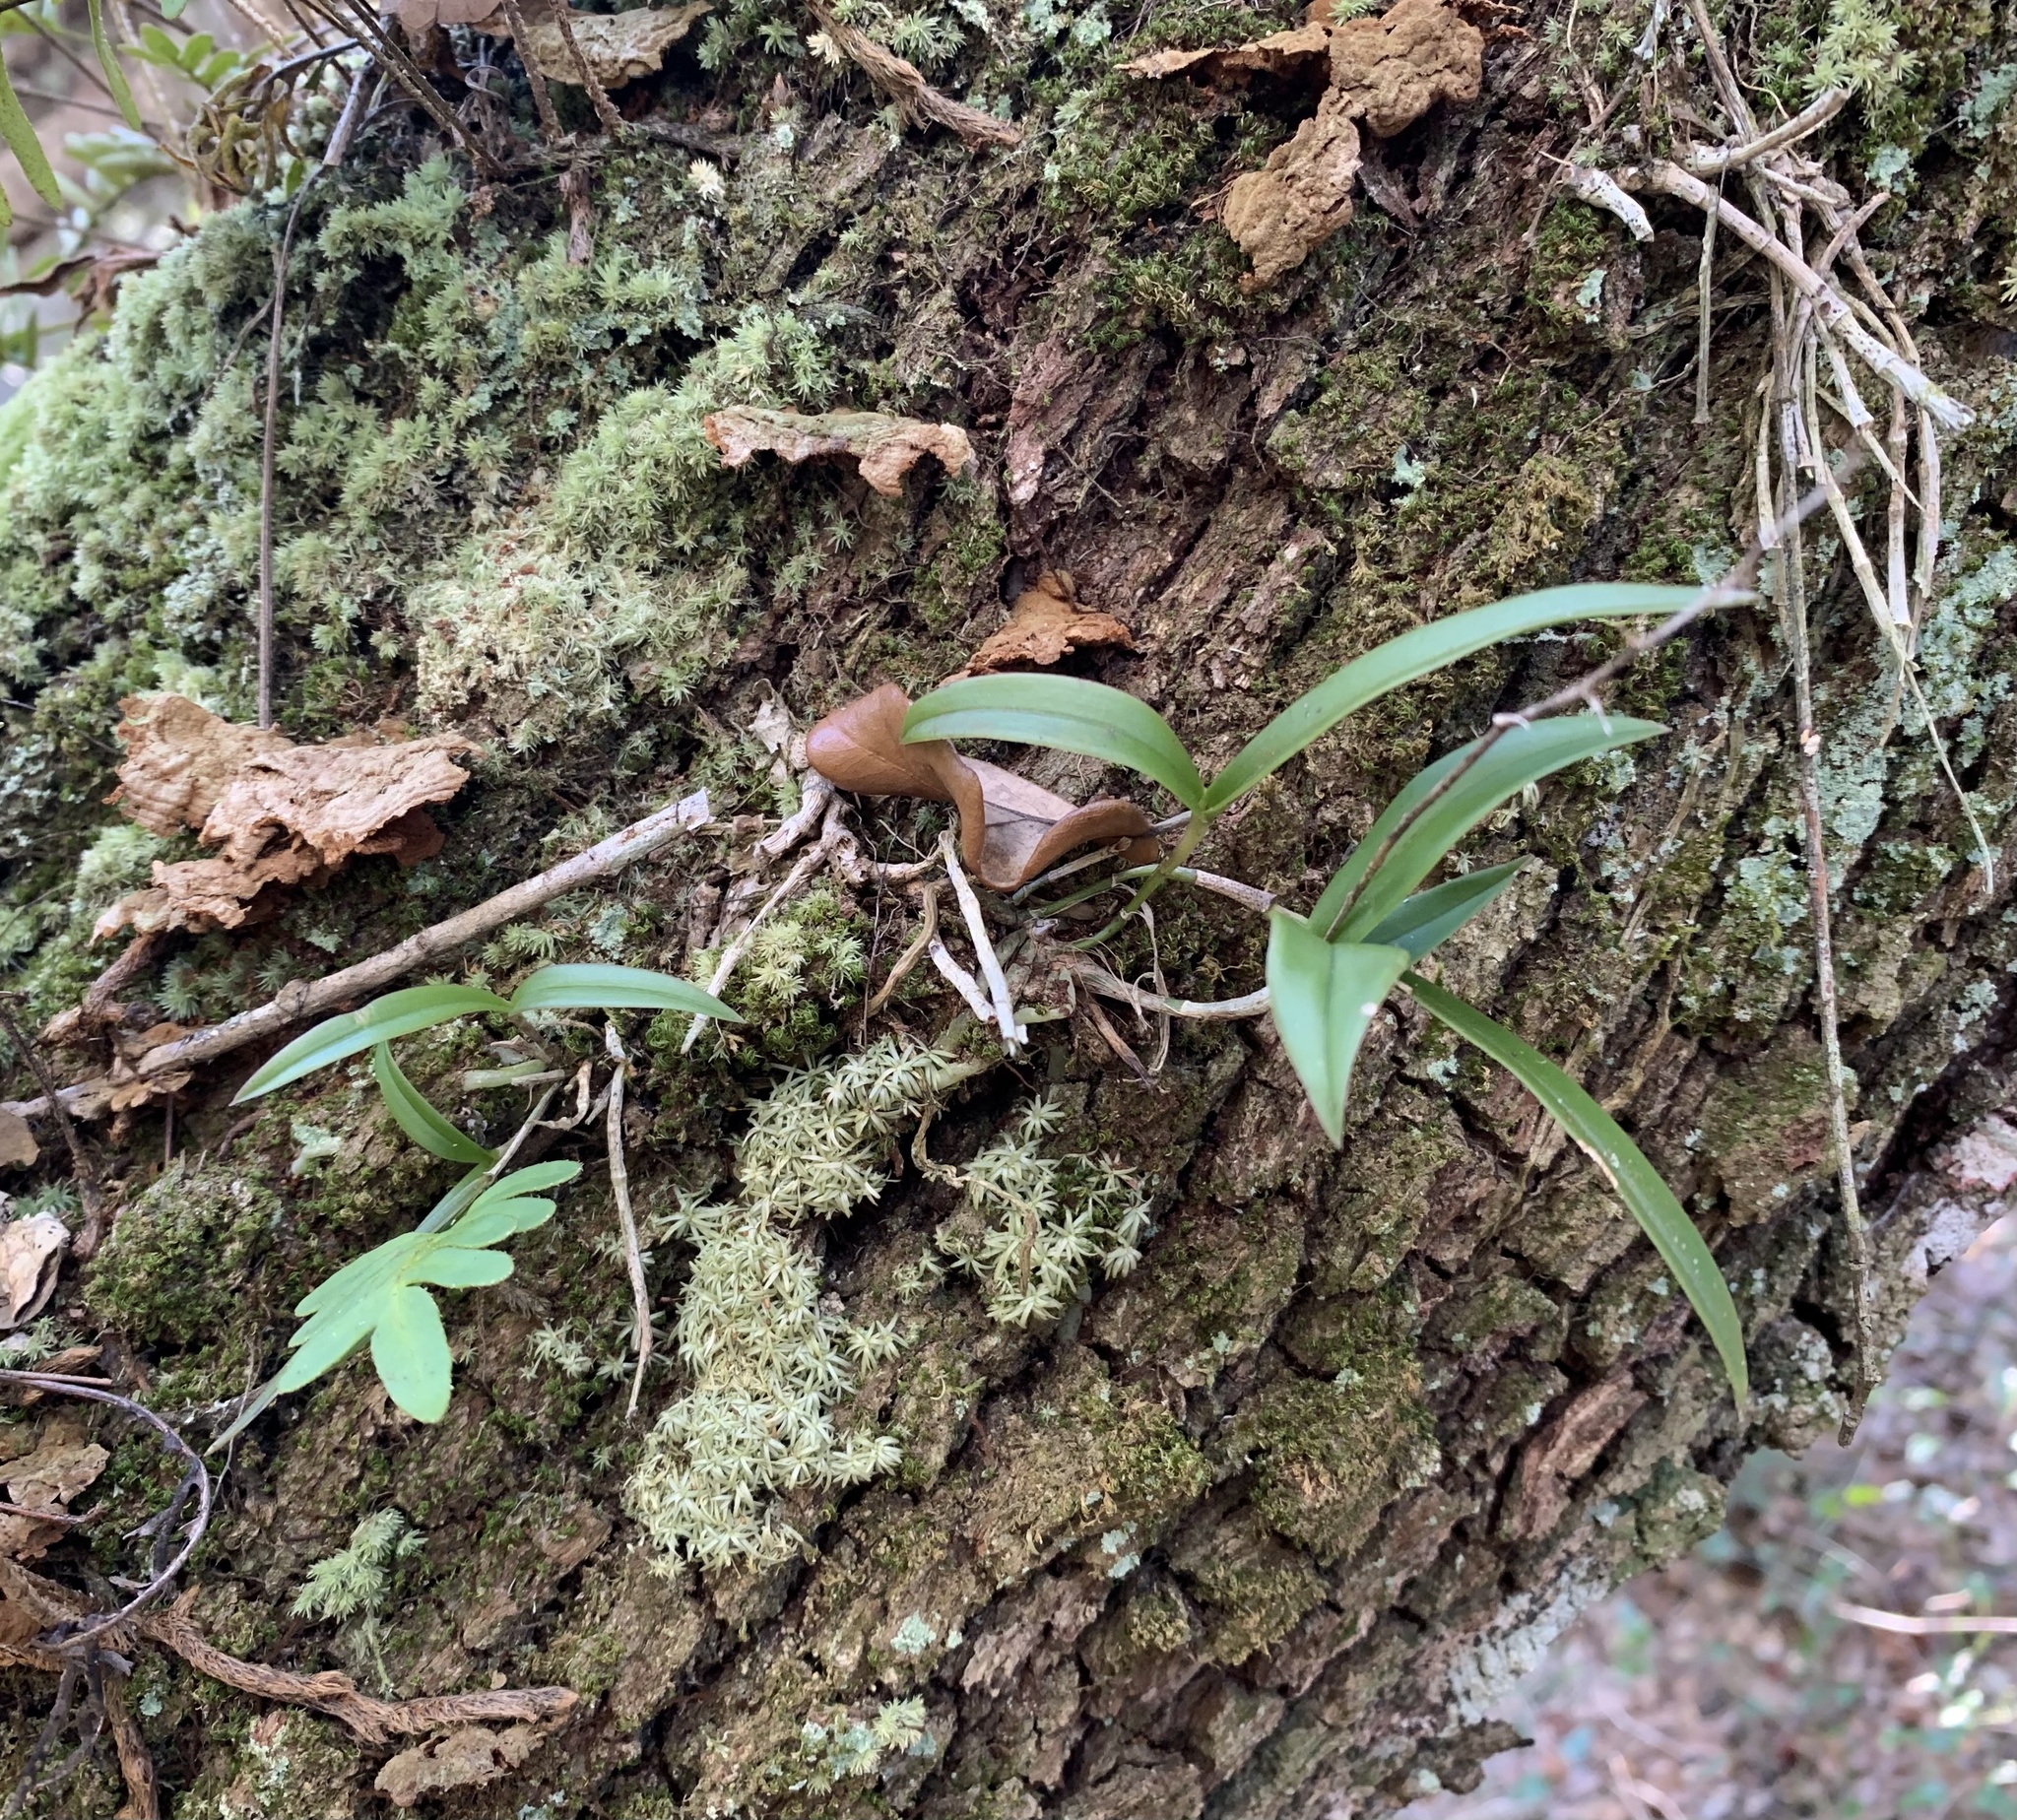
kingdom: Plantae
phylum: Tracheophyta
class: Liliopsida
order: Asparagales
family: Orchidaceae
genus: Epidendrum
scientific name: Epidendrum conopseum
